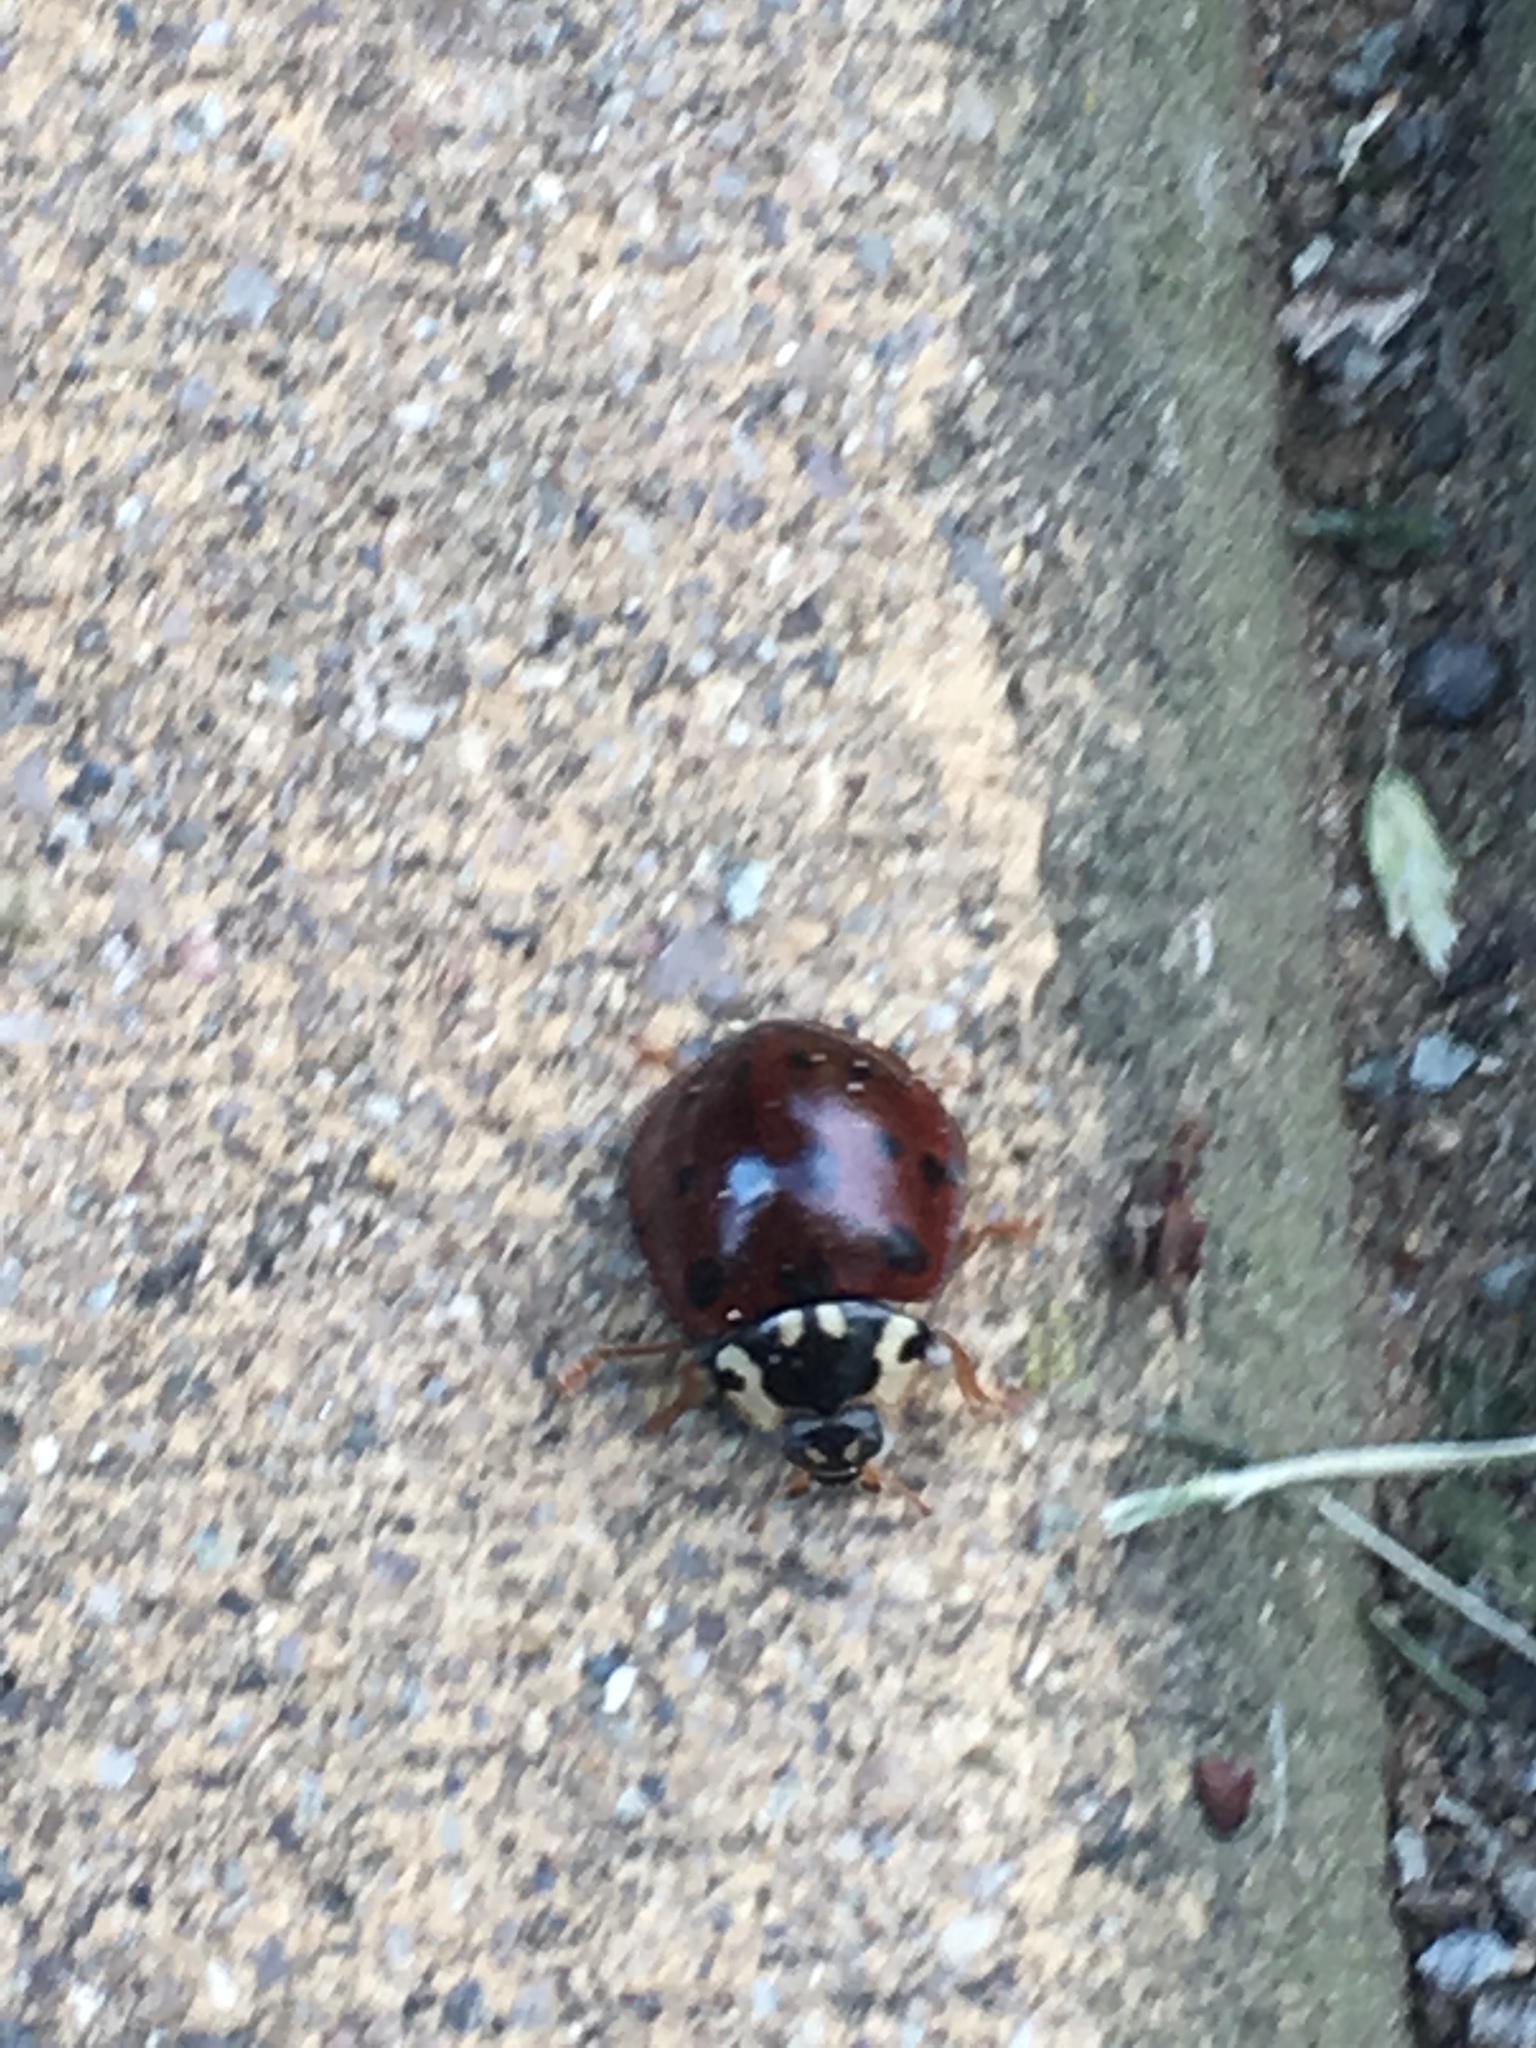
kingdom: Animalia
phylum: Arthropoda
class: Insecta
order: Coleoptera
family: Coccinellidae
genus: Anatis
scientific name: Anatis labiculata
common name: Fifteen-spotted lady beetle
